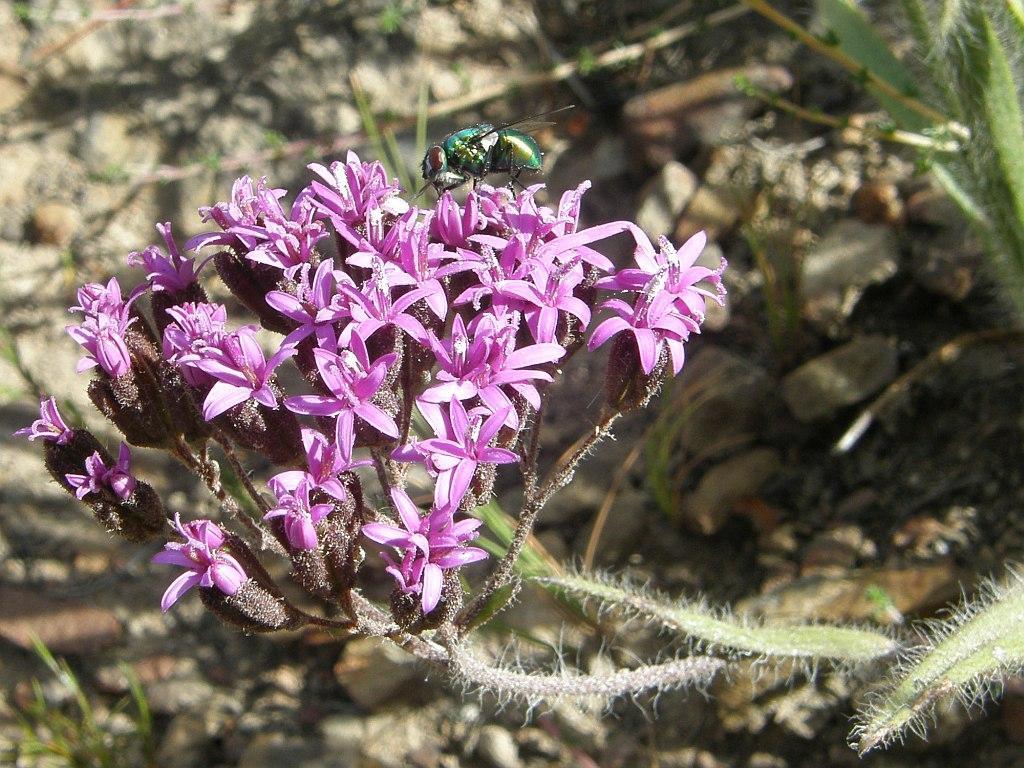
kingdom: Plantae
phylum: Tracheophyta
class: Magnoliopsida
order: Asterales
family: Asteraceae
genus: Corymbium
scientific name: Corymbium villosum
